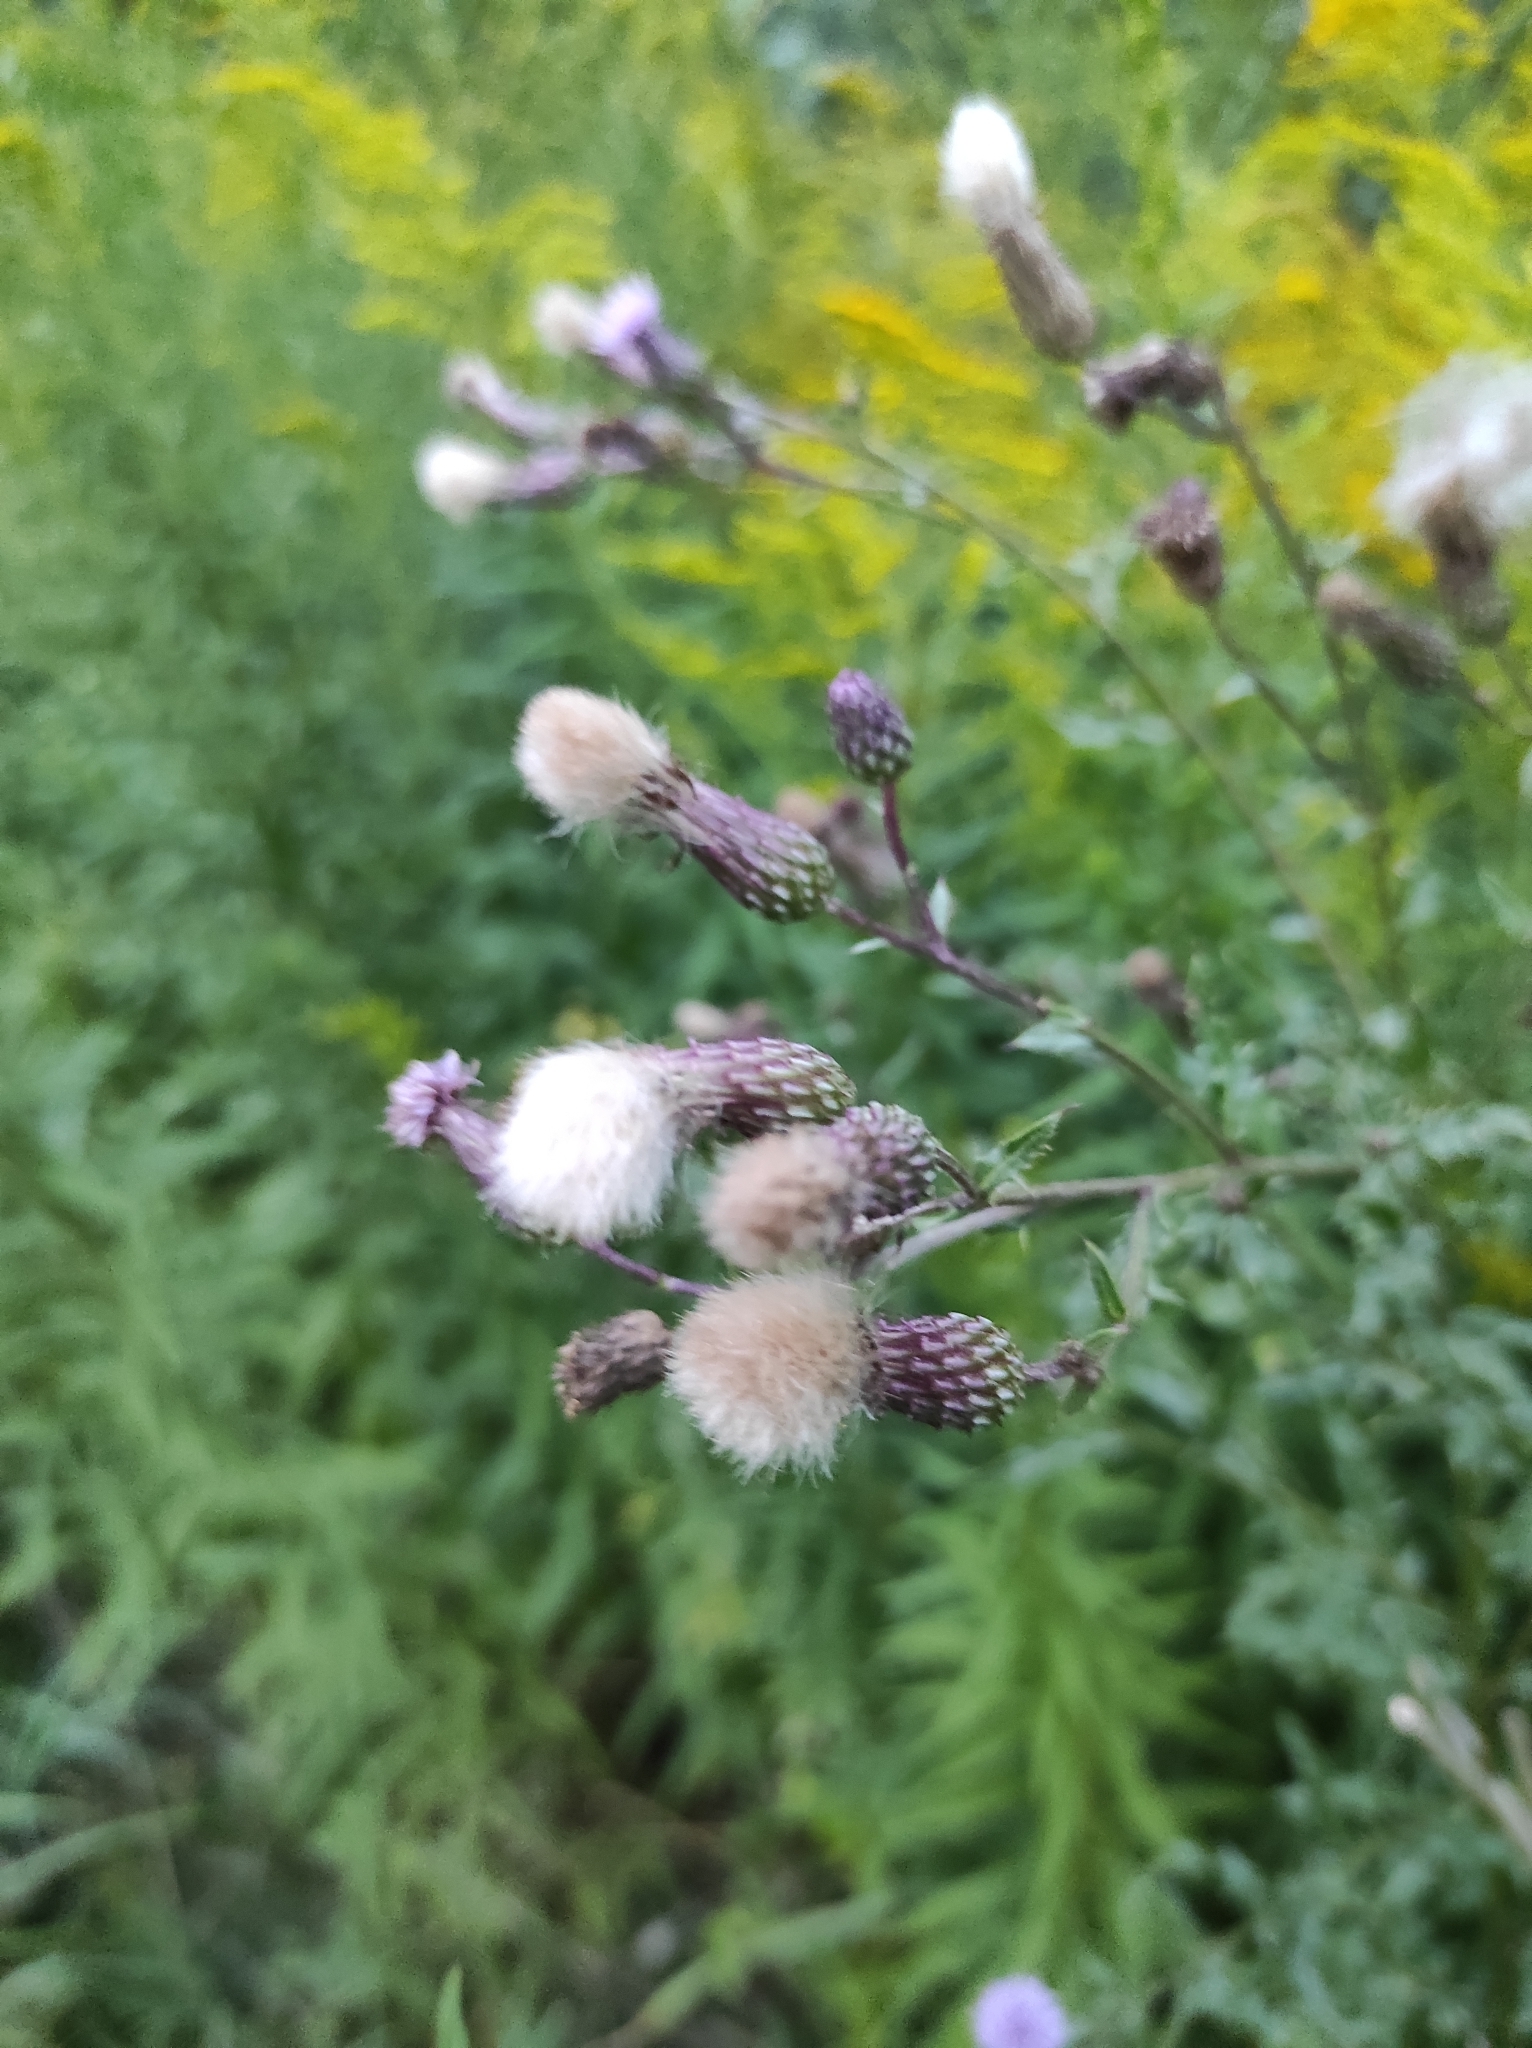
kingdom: Plantae
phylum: Tracheophyta
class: Magnoliopsida
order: Asterales
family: Asteraceae
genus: Cirsium
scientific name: Cirsium arvense
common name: Creeping thistle
